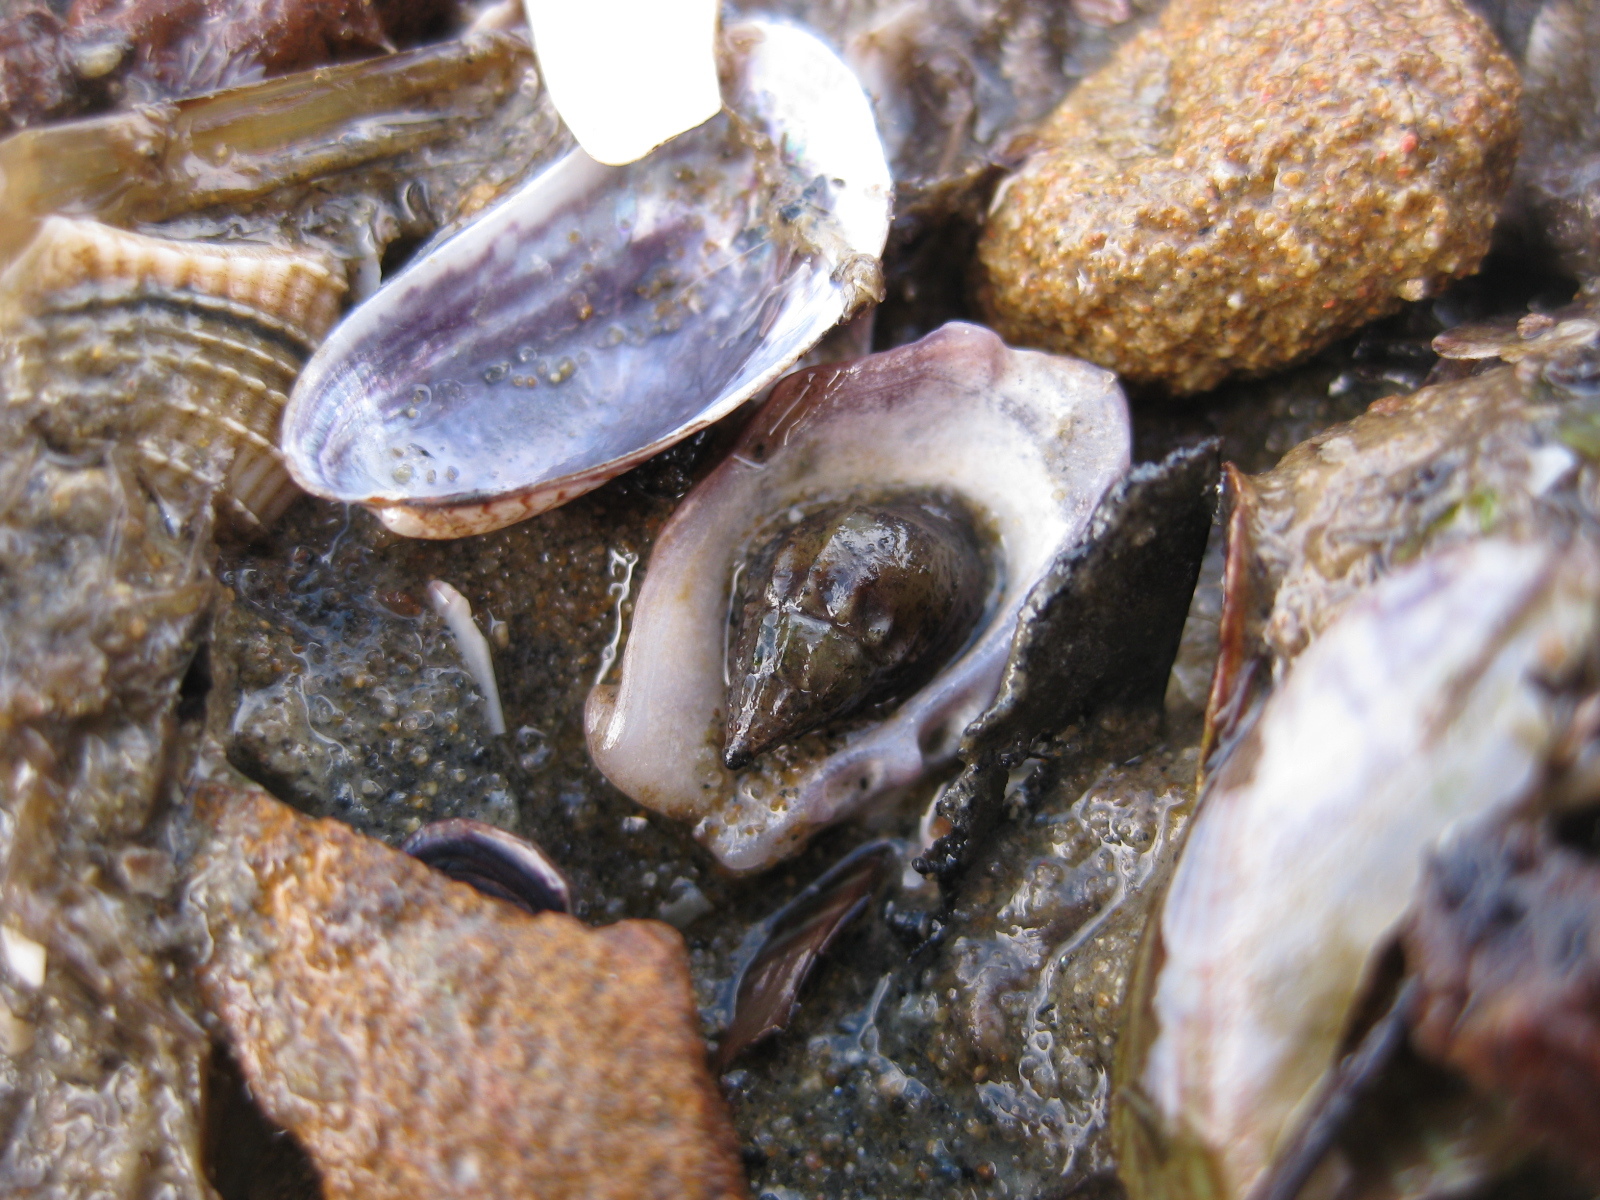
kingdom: Animalia
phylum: Mollusca
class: Gastropoda
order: Neogastropoda
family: Nassariidae
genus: Tritia
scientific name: Tritia burchardi
